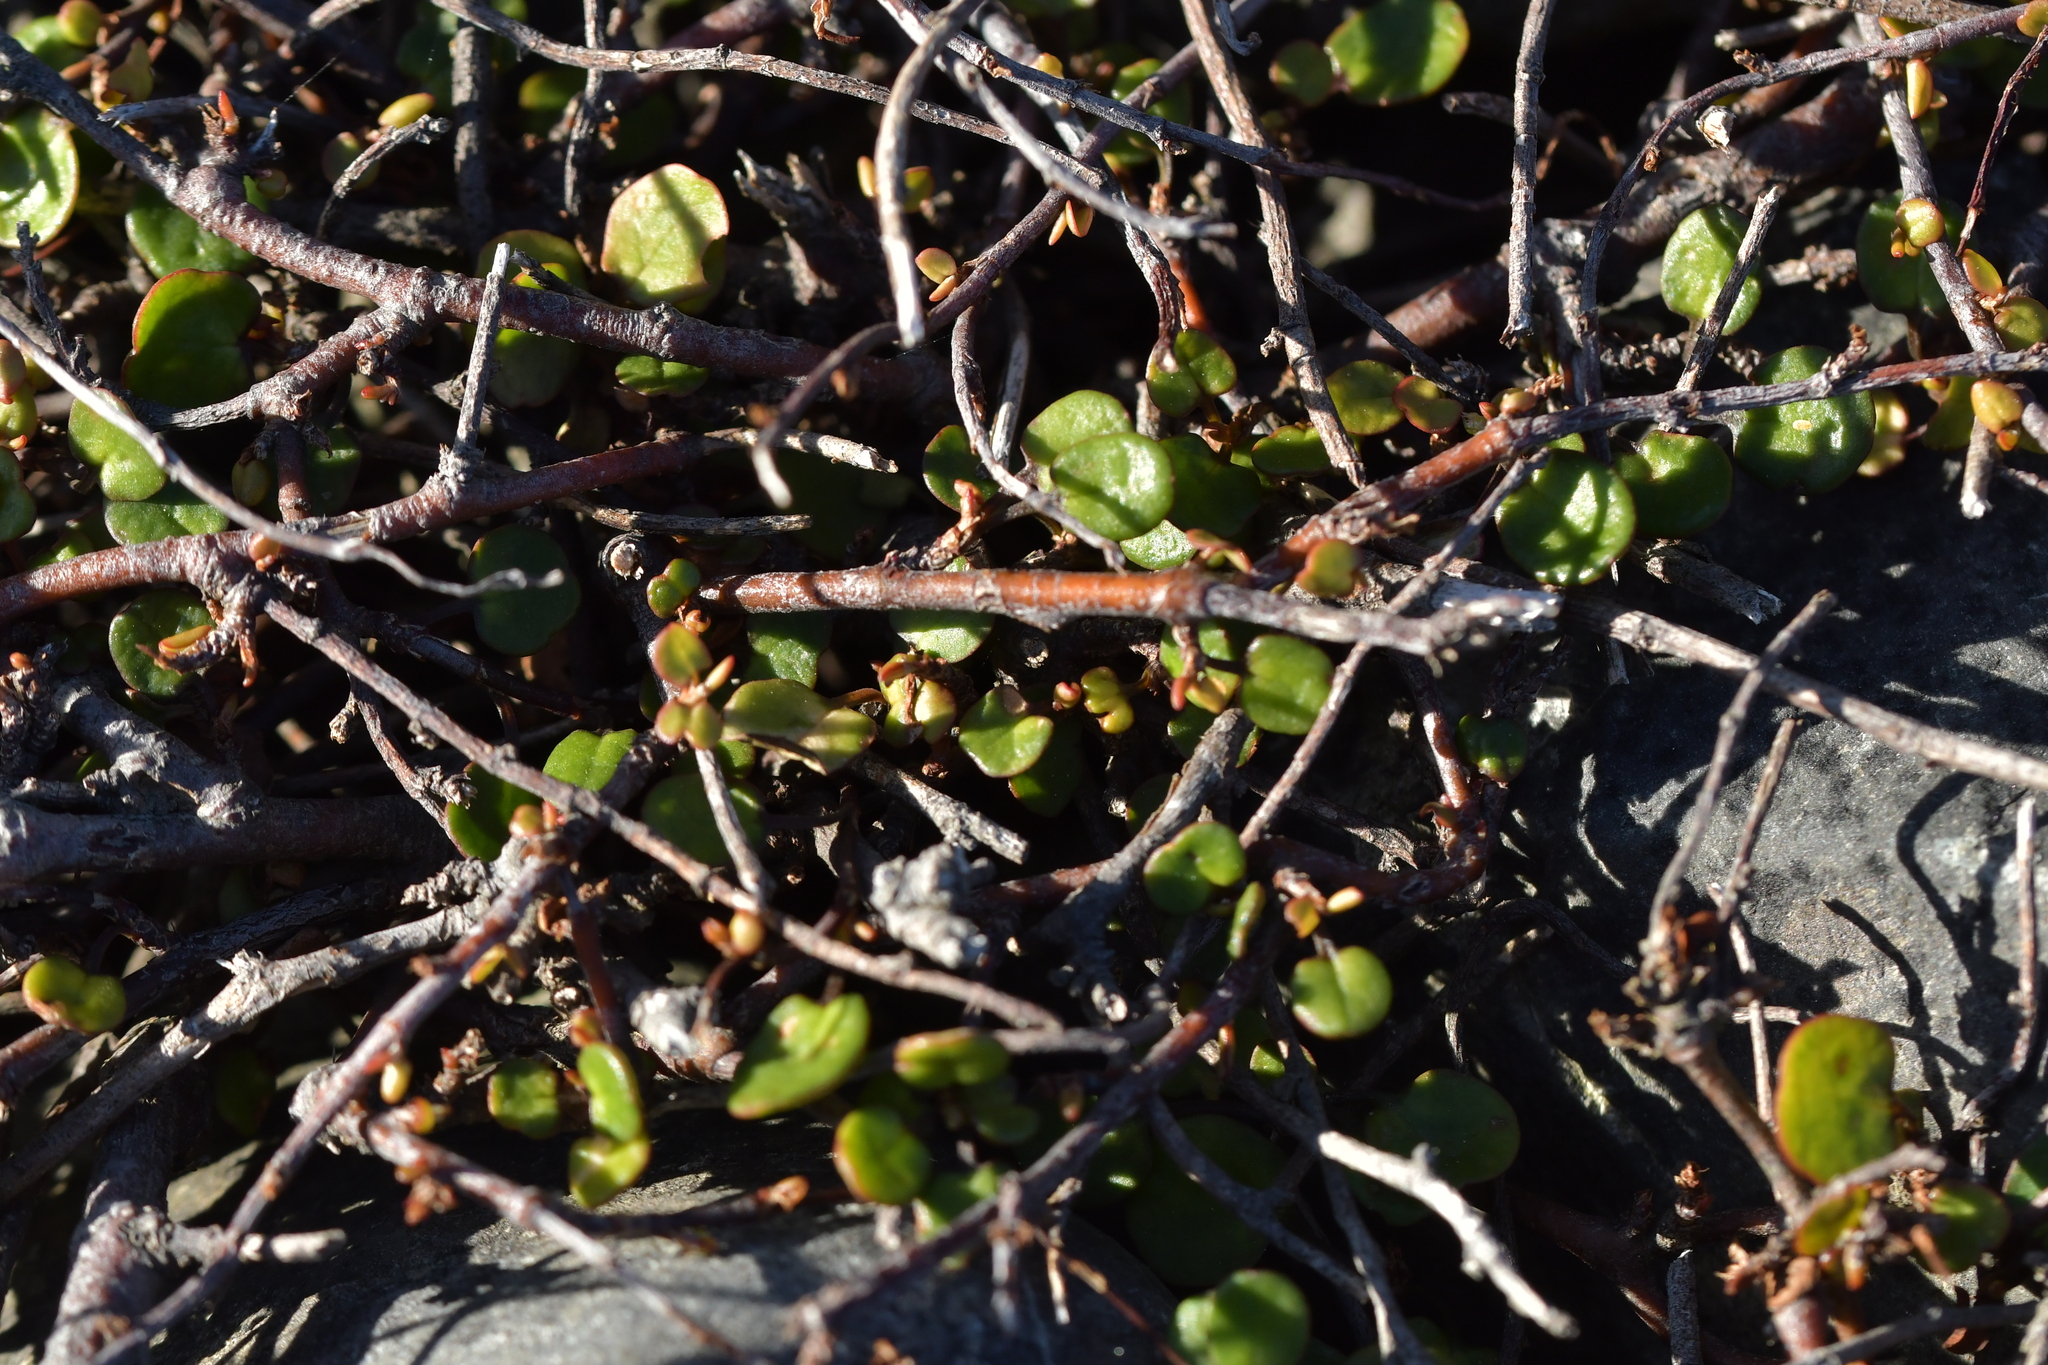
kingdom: Plantae
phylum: Tracheophyta
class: Magnoliopsida
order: Caryophyllales
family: Polygonaceae
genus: Muehlenbeckia
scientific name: Muehlenbeckia complexa
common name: Wireplant
